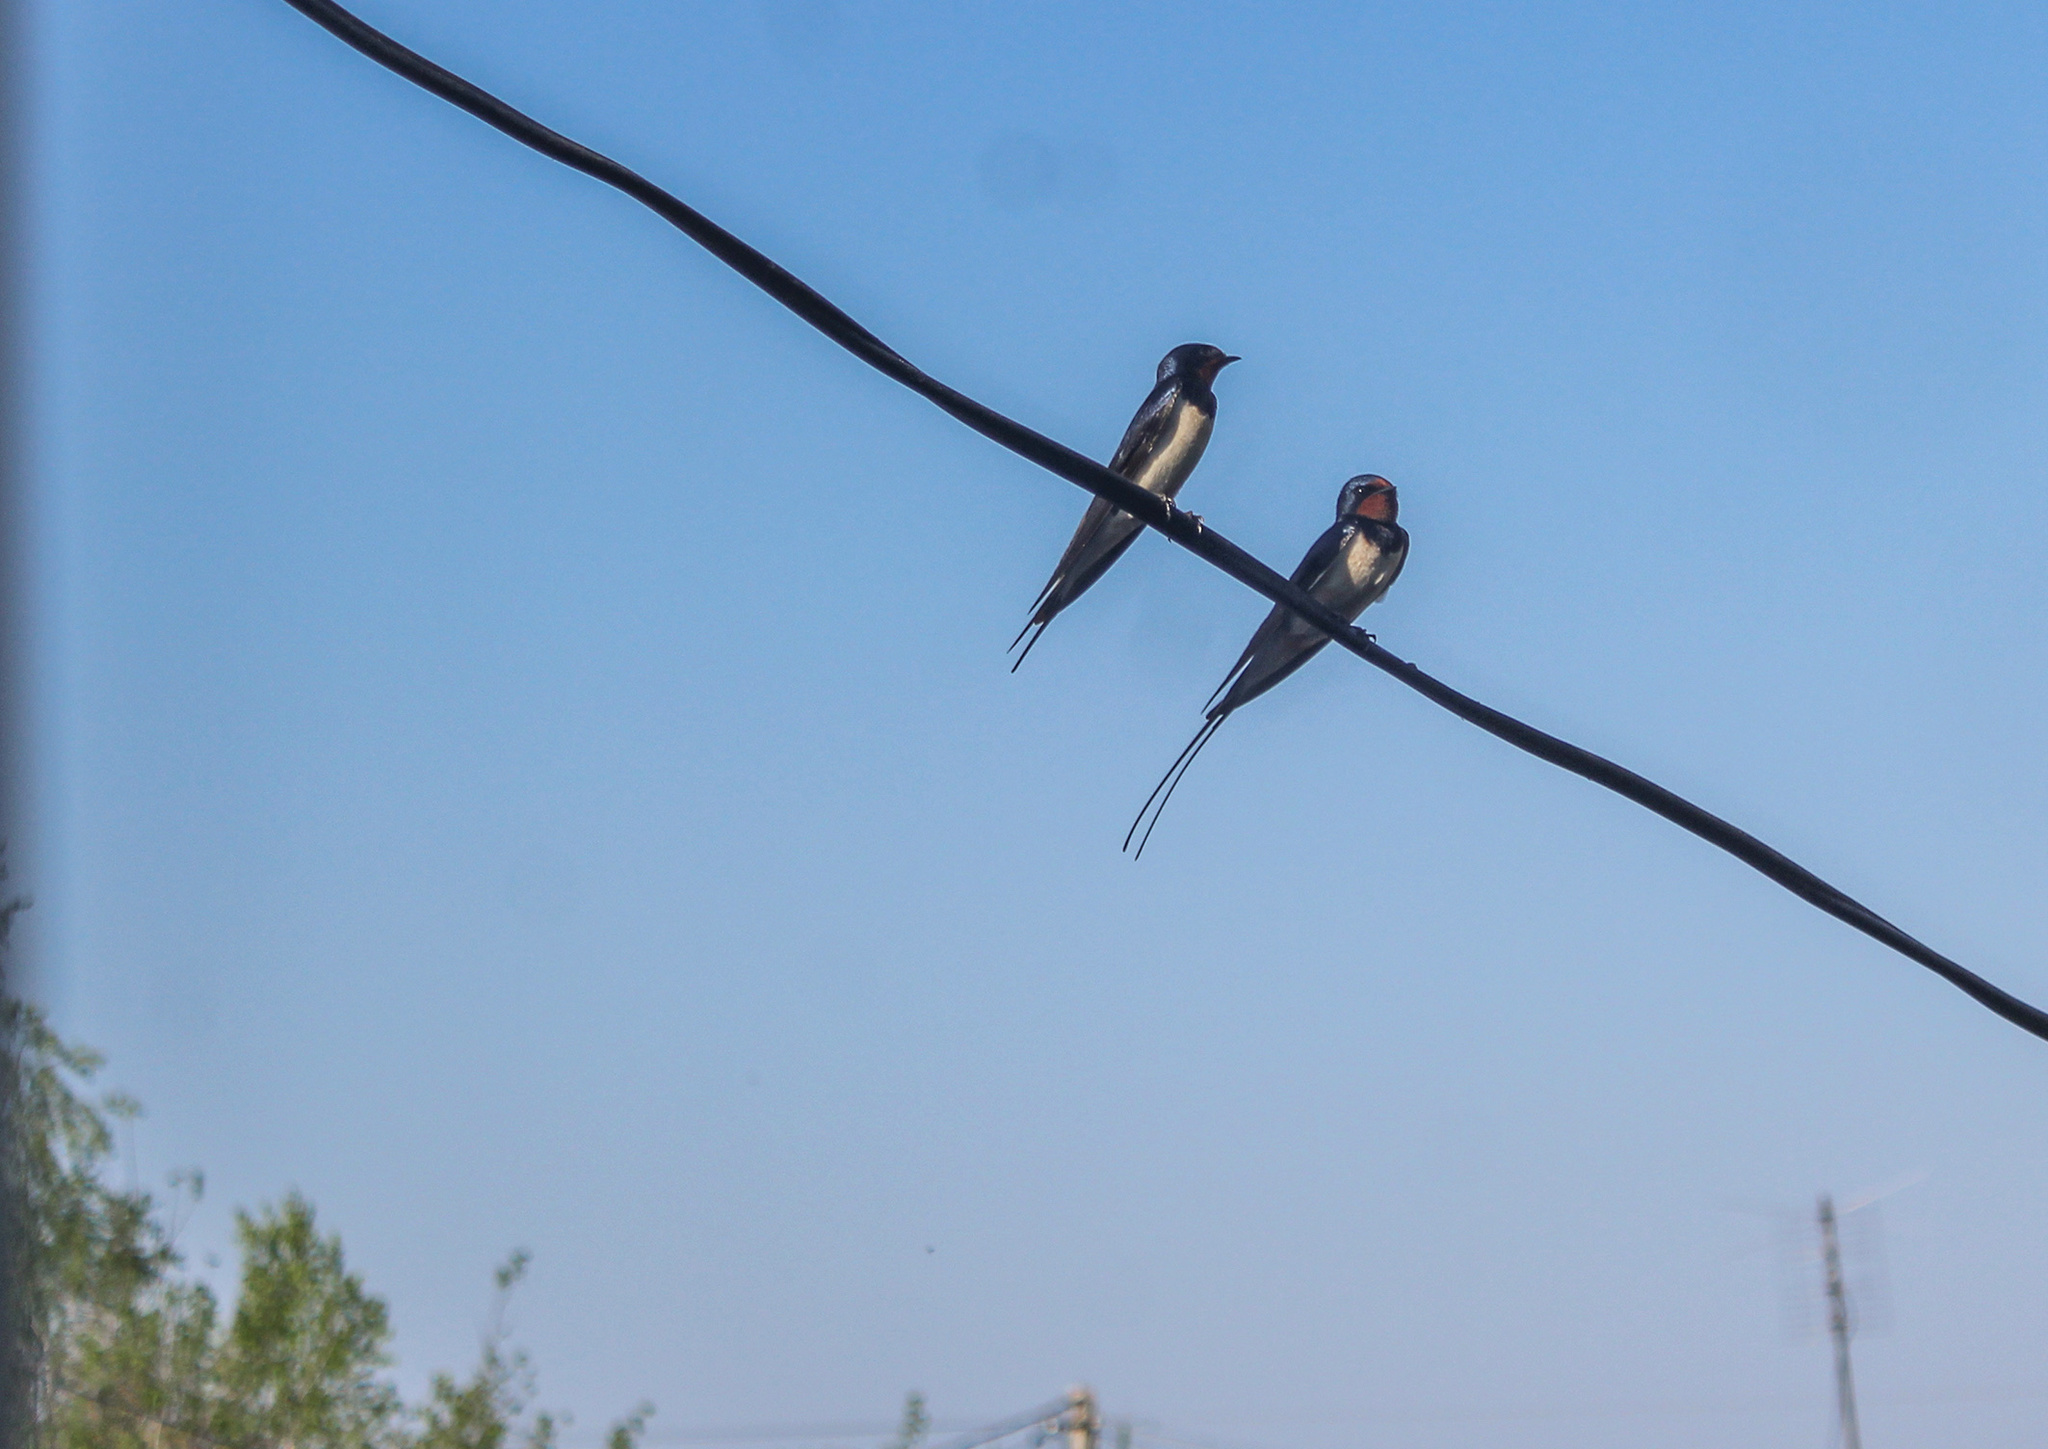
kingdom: Animalia
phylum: Chordata
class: Aves
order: Passeriformes
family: Hirundinidae
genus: Hirundo
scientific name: Hirundo rustica
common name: Barn swallow
